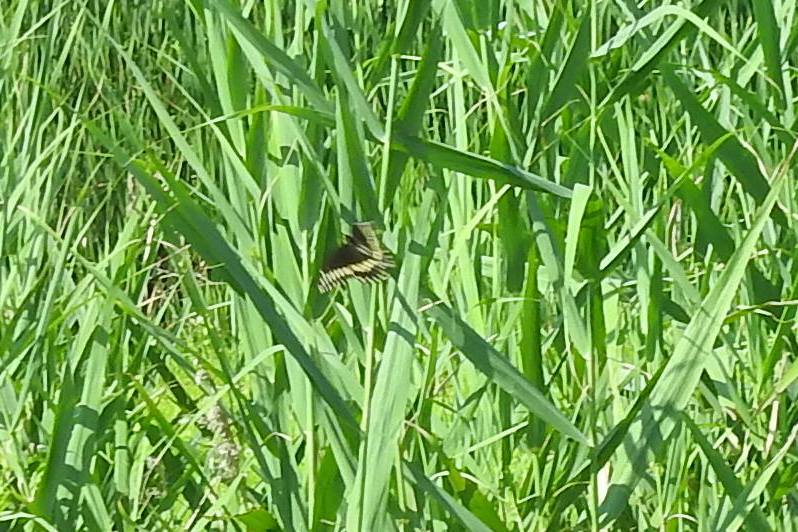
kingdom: Animalia
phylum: Arthropoda
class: Insecta
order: Lepidoptera
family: Papilionidae
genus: Papilio
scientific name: Papilio polyxenes
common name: Black swallowtail
